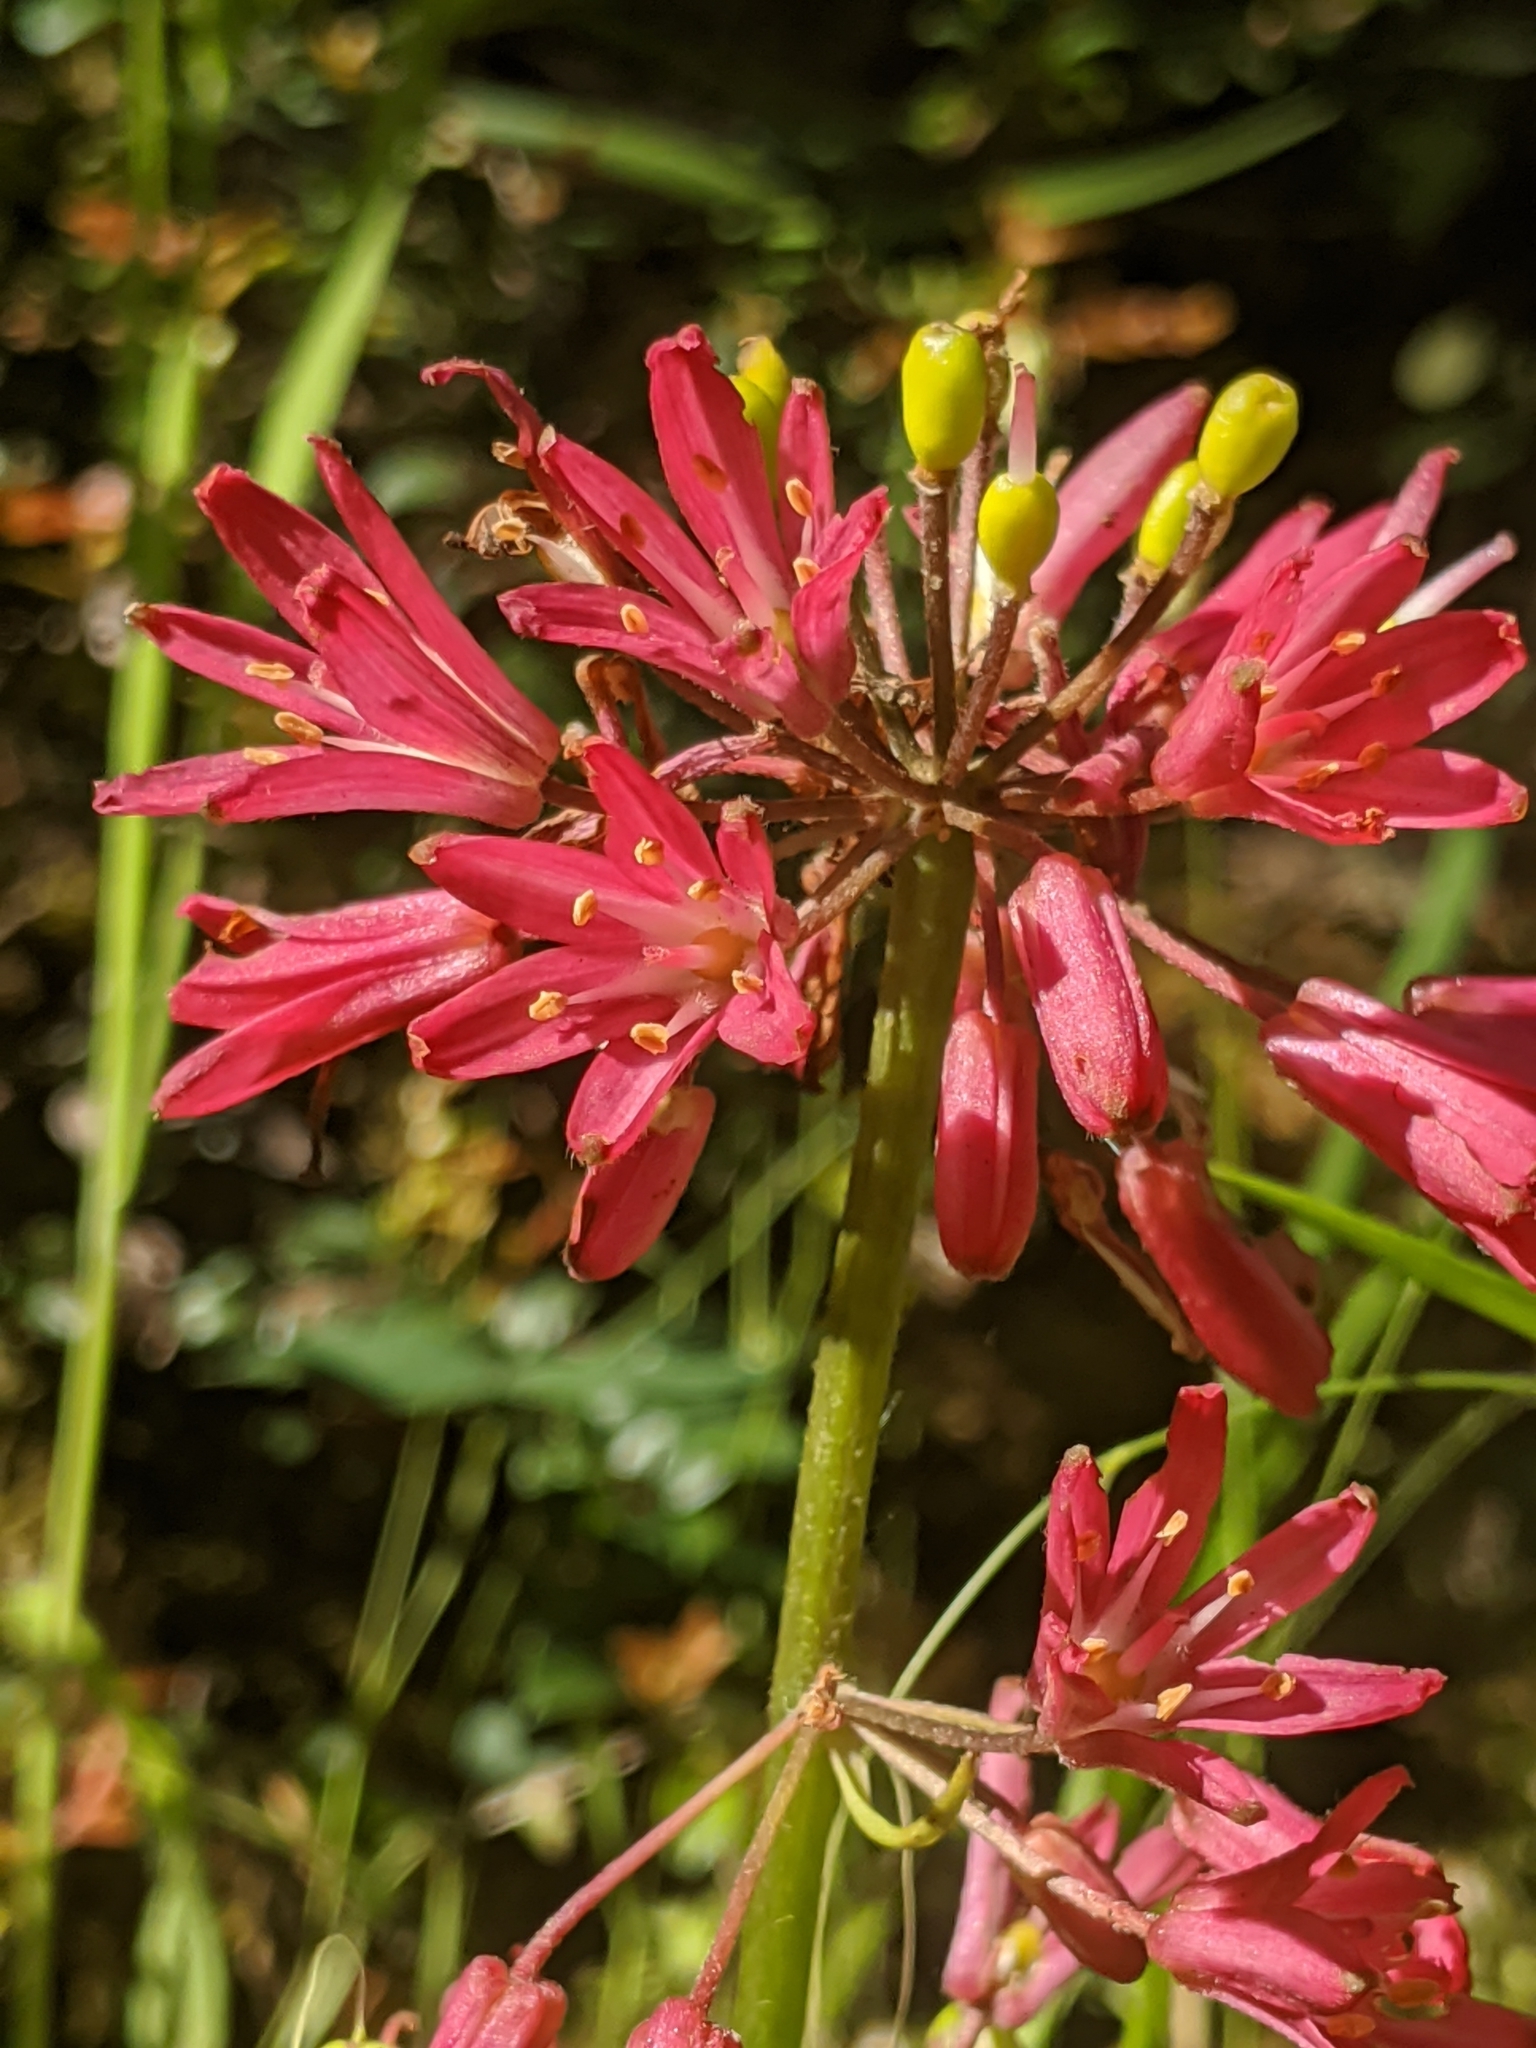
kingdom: Plantae
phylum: Tracheophyta
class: Liliopsida
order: Liliales
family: Liliaceae
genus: Clintonia
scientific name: Clintonia andrewsiana
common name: Red clintonia
